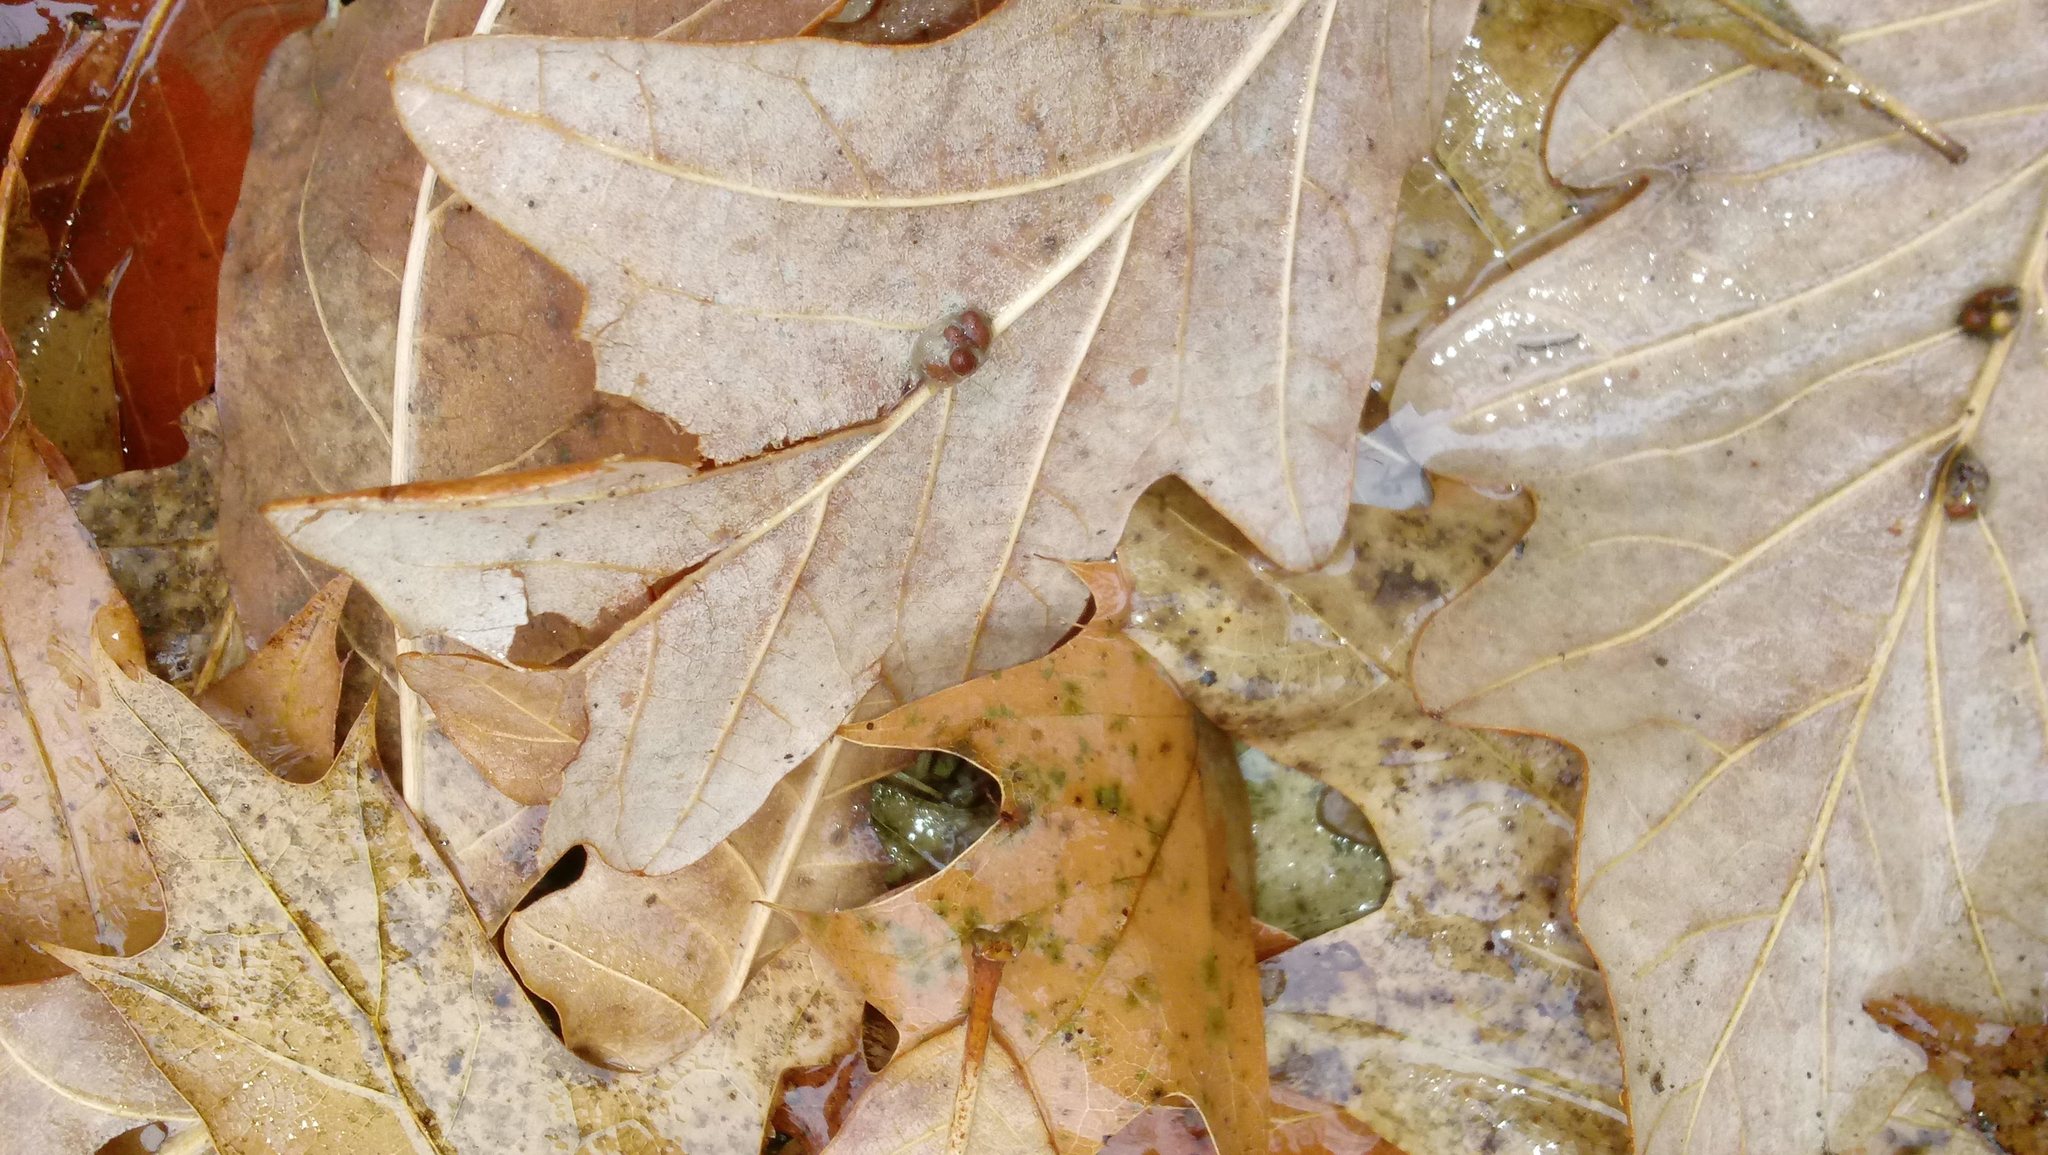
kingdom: Animalia
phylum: Arthropoda
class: Insecta
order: Hymenoptera
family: Cynipidae
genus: Andricus
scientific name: Andricus Druon ignotum
